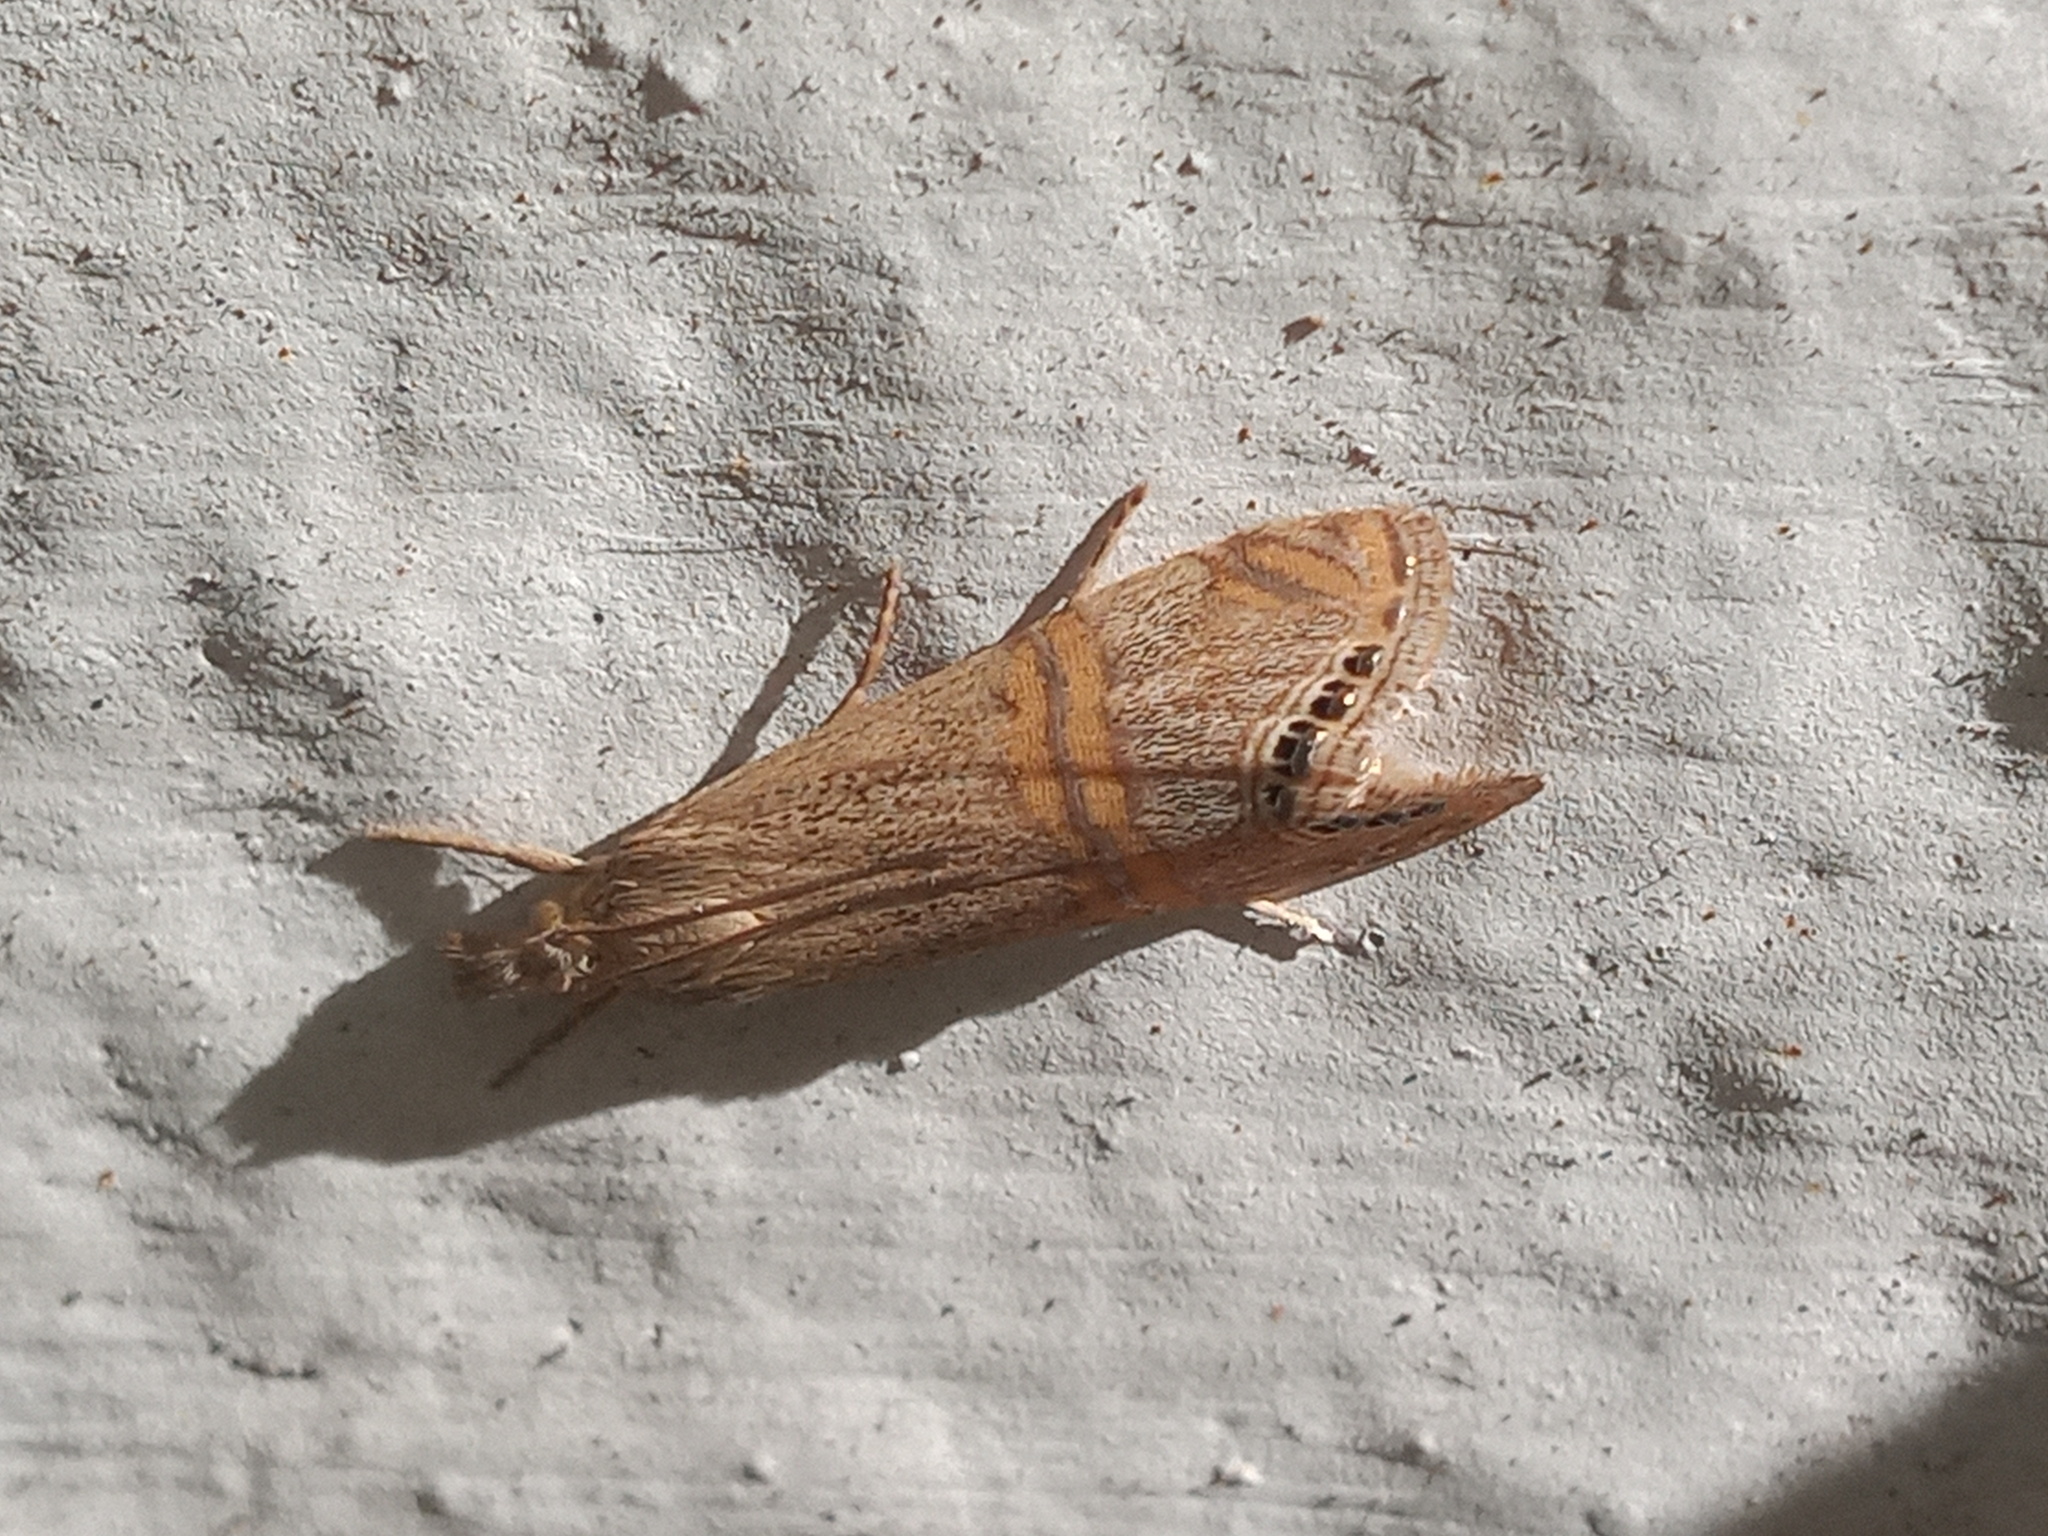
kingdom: Animalia
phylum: Arthropoda
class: Insecta
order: Lepidoptera
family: Crambidae
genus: Euchromius
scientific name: Euchromius ocellea
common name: Necklace veneer moth
